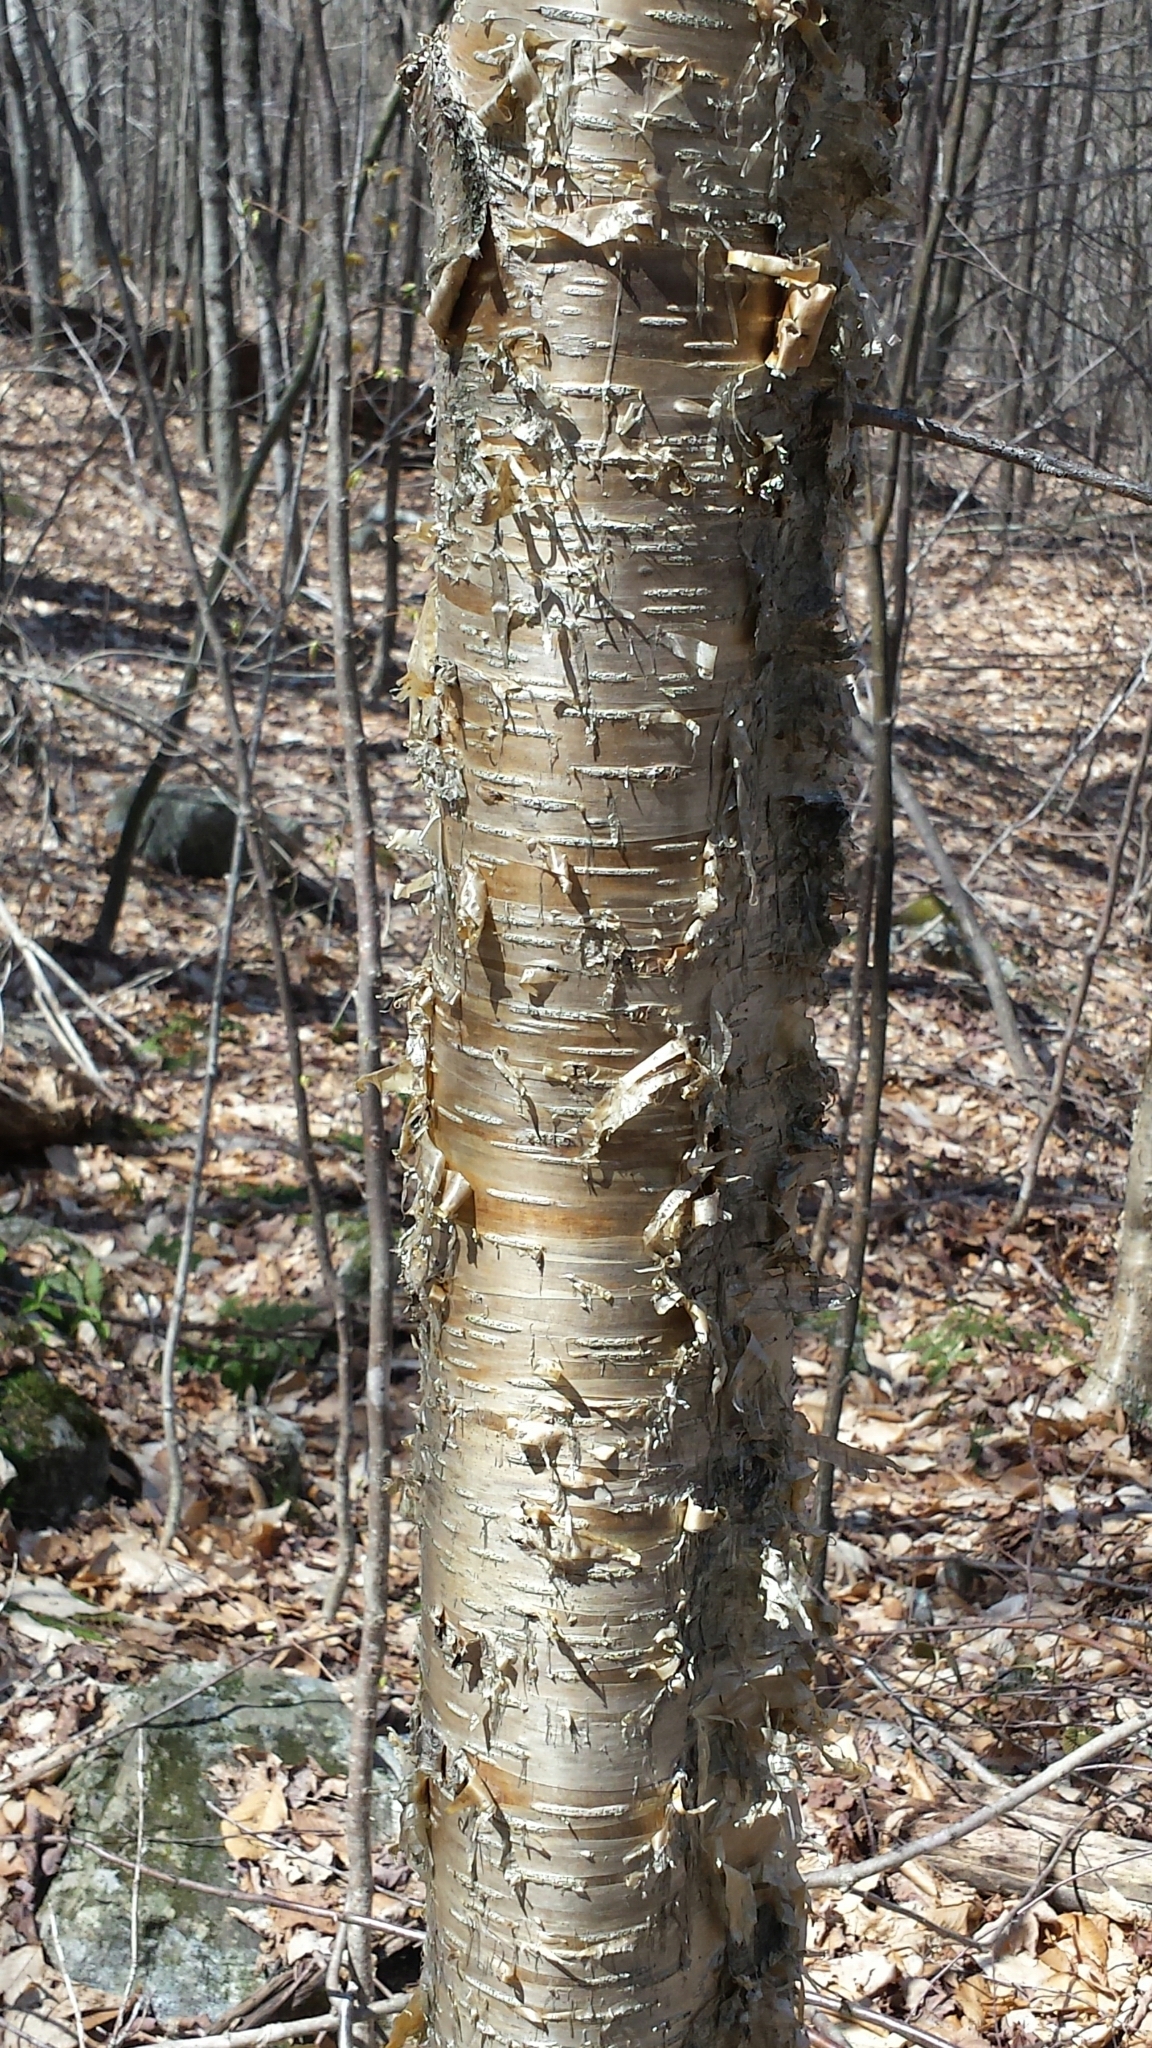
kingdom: Plantae
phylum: Tracheophyta
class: Magnoliopsida
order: Fagales
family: Betulaceae
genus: Betula
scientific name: Betula alleghaniensis
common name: Yellow birch
